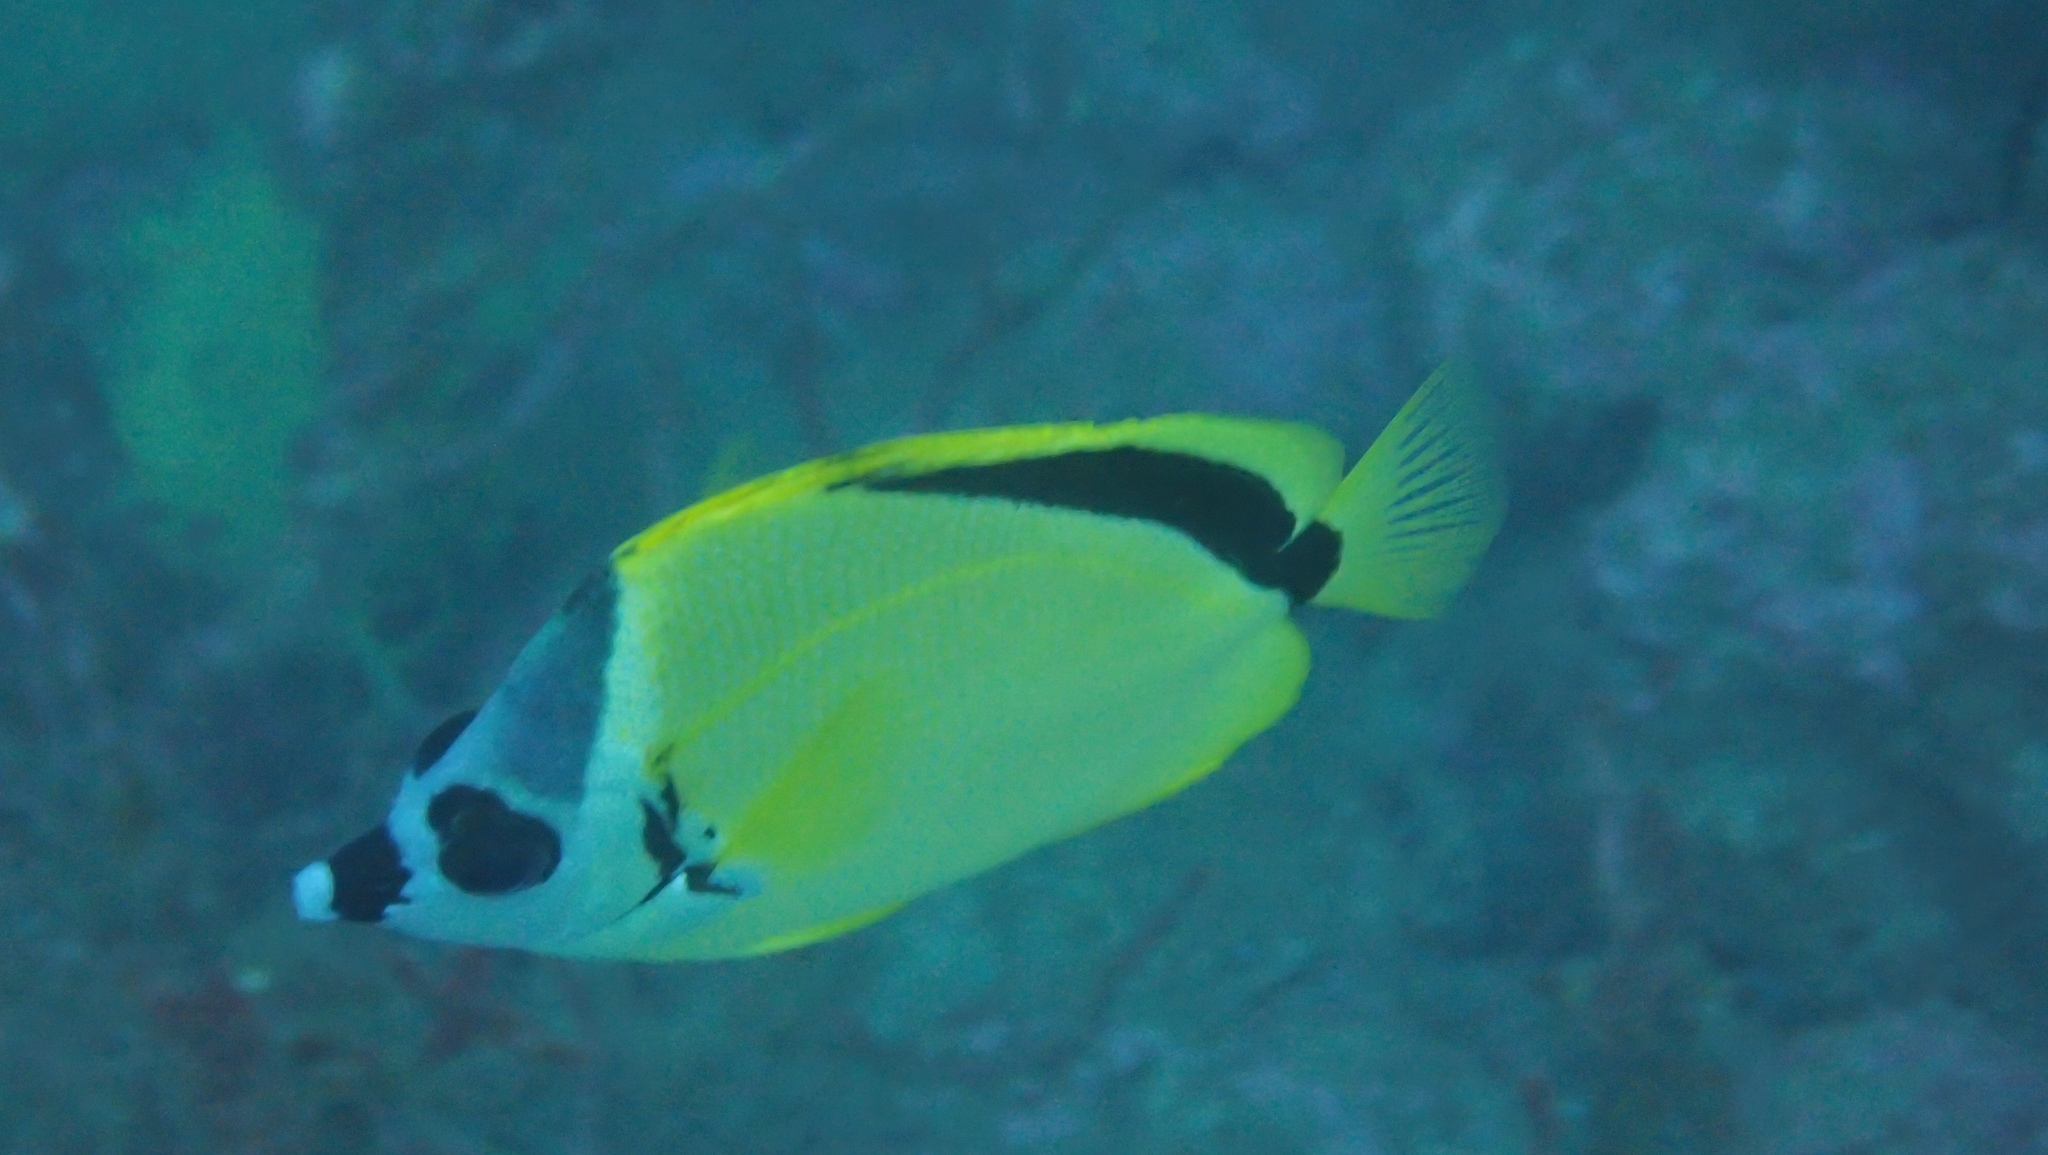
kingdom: Animalia
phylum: Chordata
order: Perciformes
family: Chaetodontidae
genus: Johnrandallia
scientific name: Johnrandallia nigrirostris
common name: Barberfish
